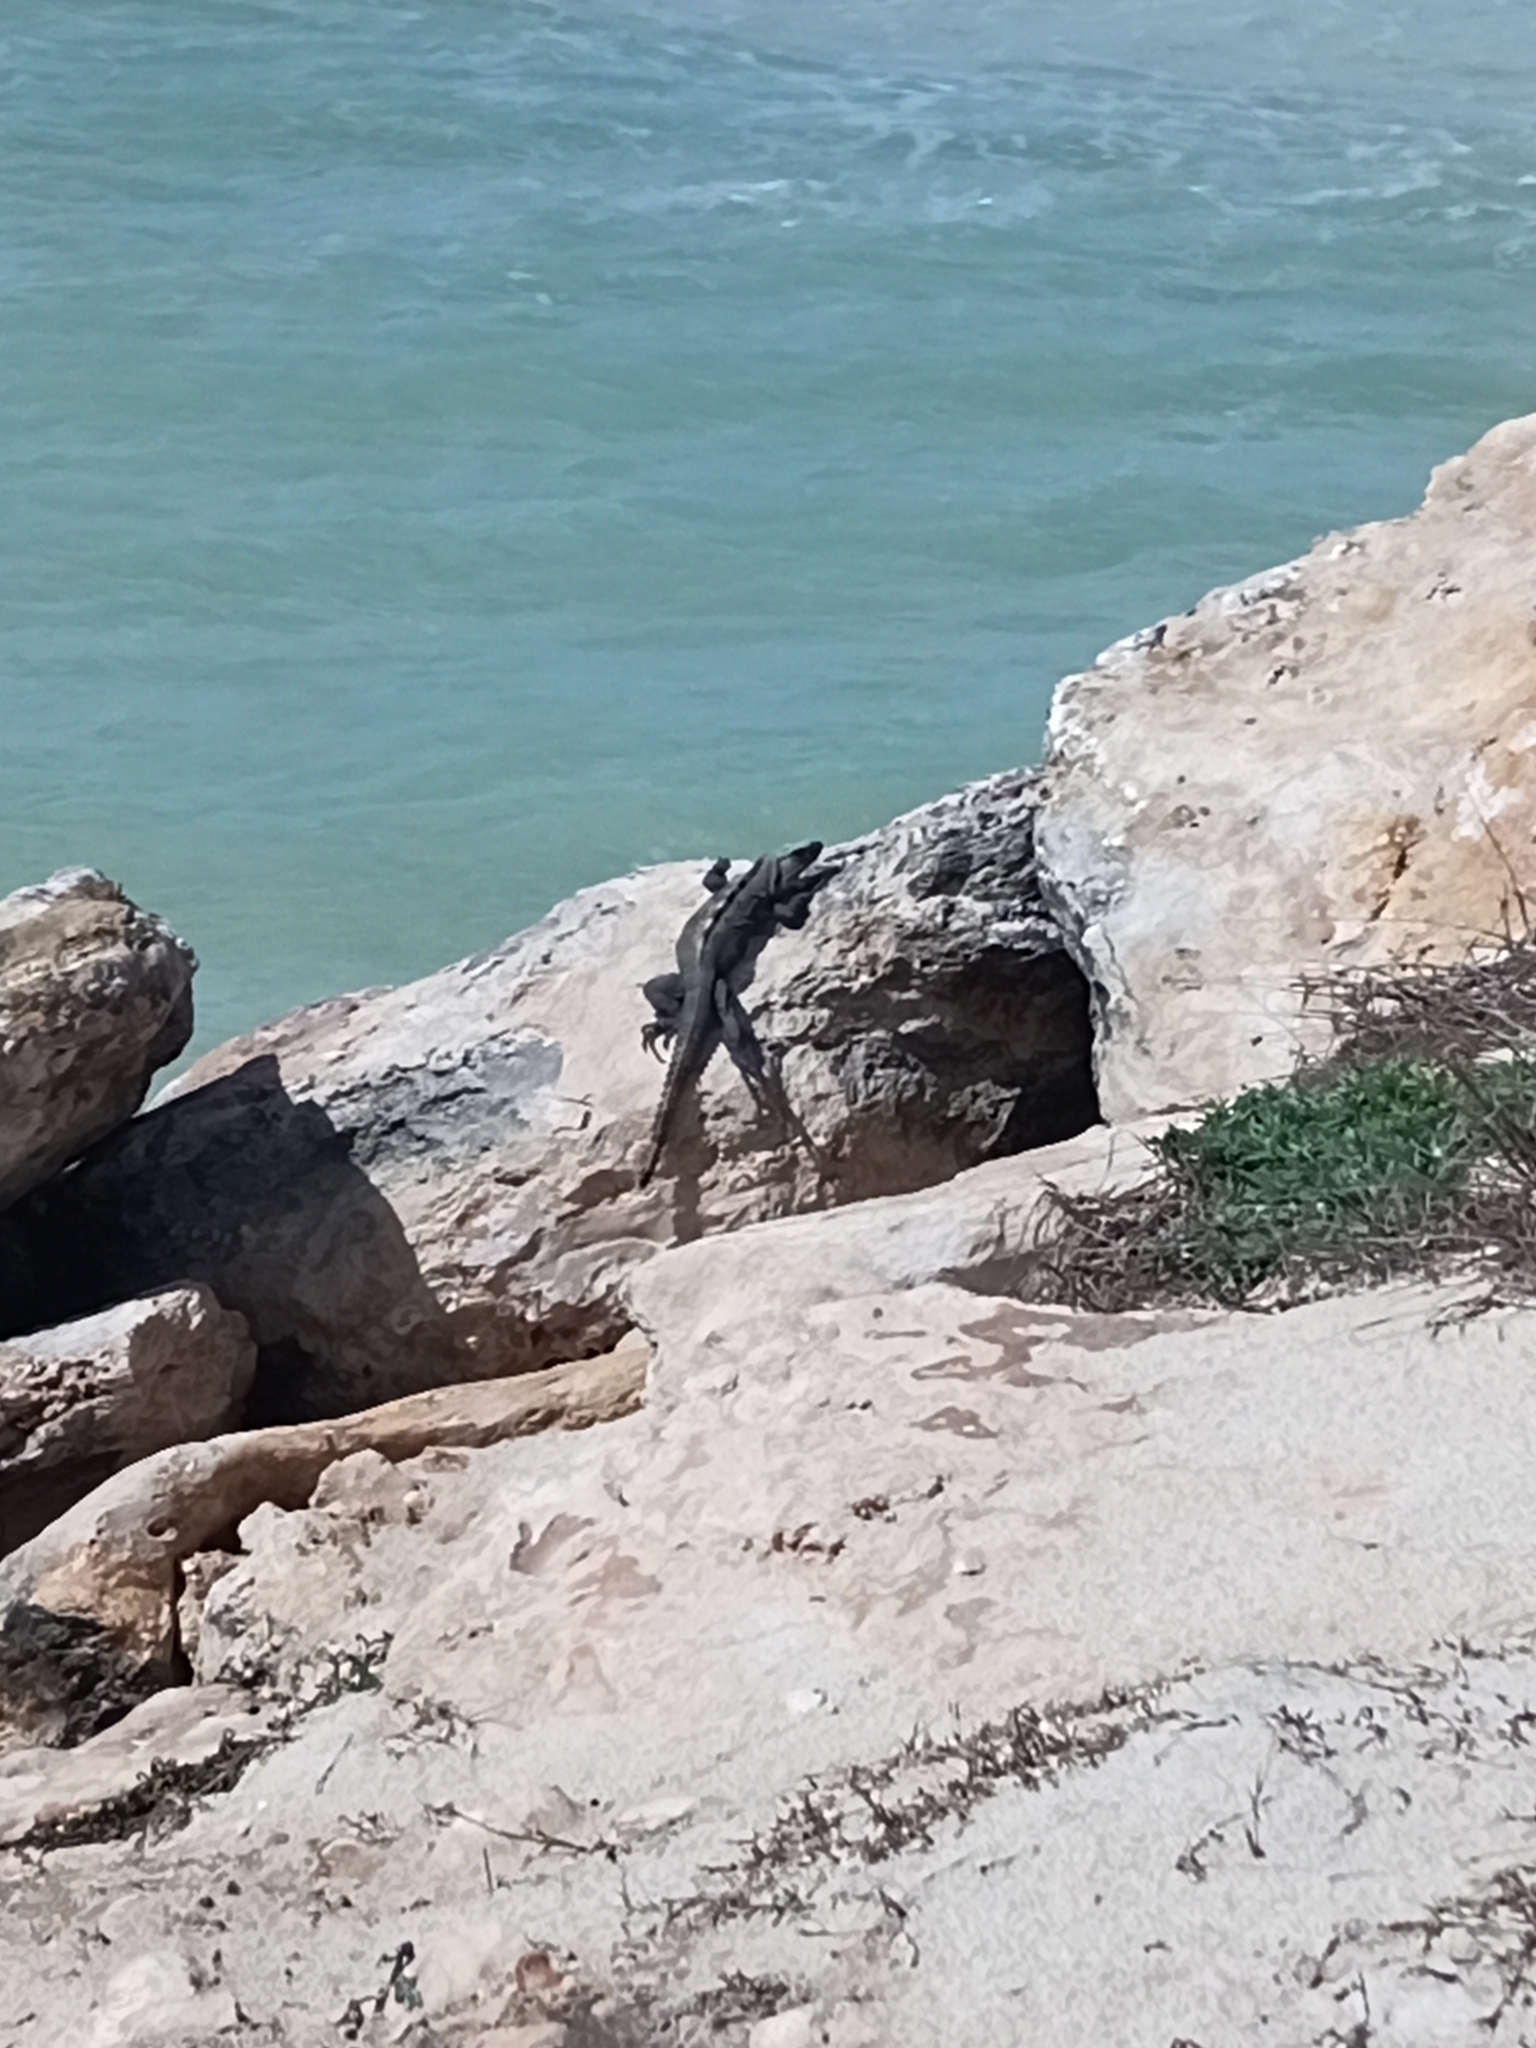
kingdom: Animalia
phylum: Chordata
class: Squamata
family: Iguanidae
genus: Ctenosaura
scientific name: Ctenosaura similis
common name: Black spiny-tailed iguana
